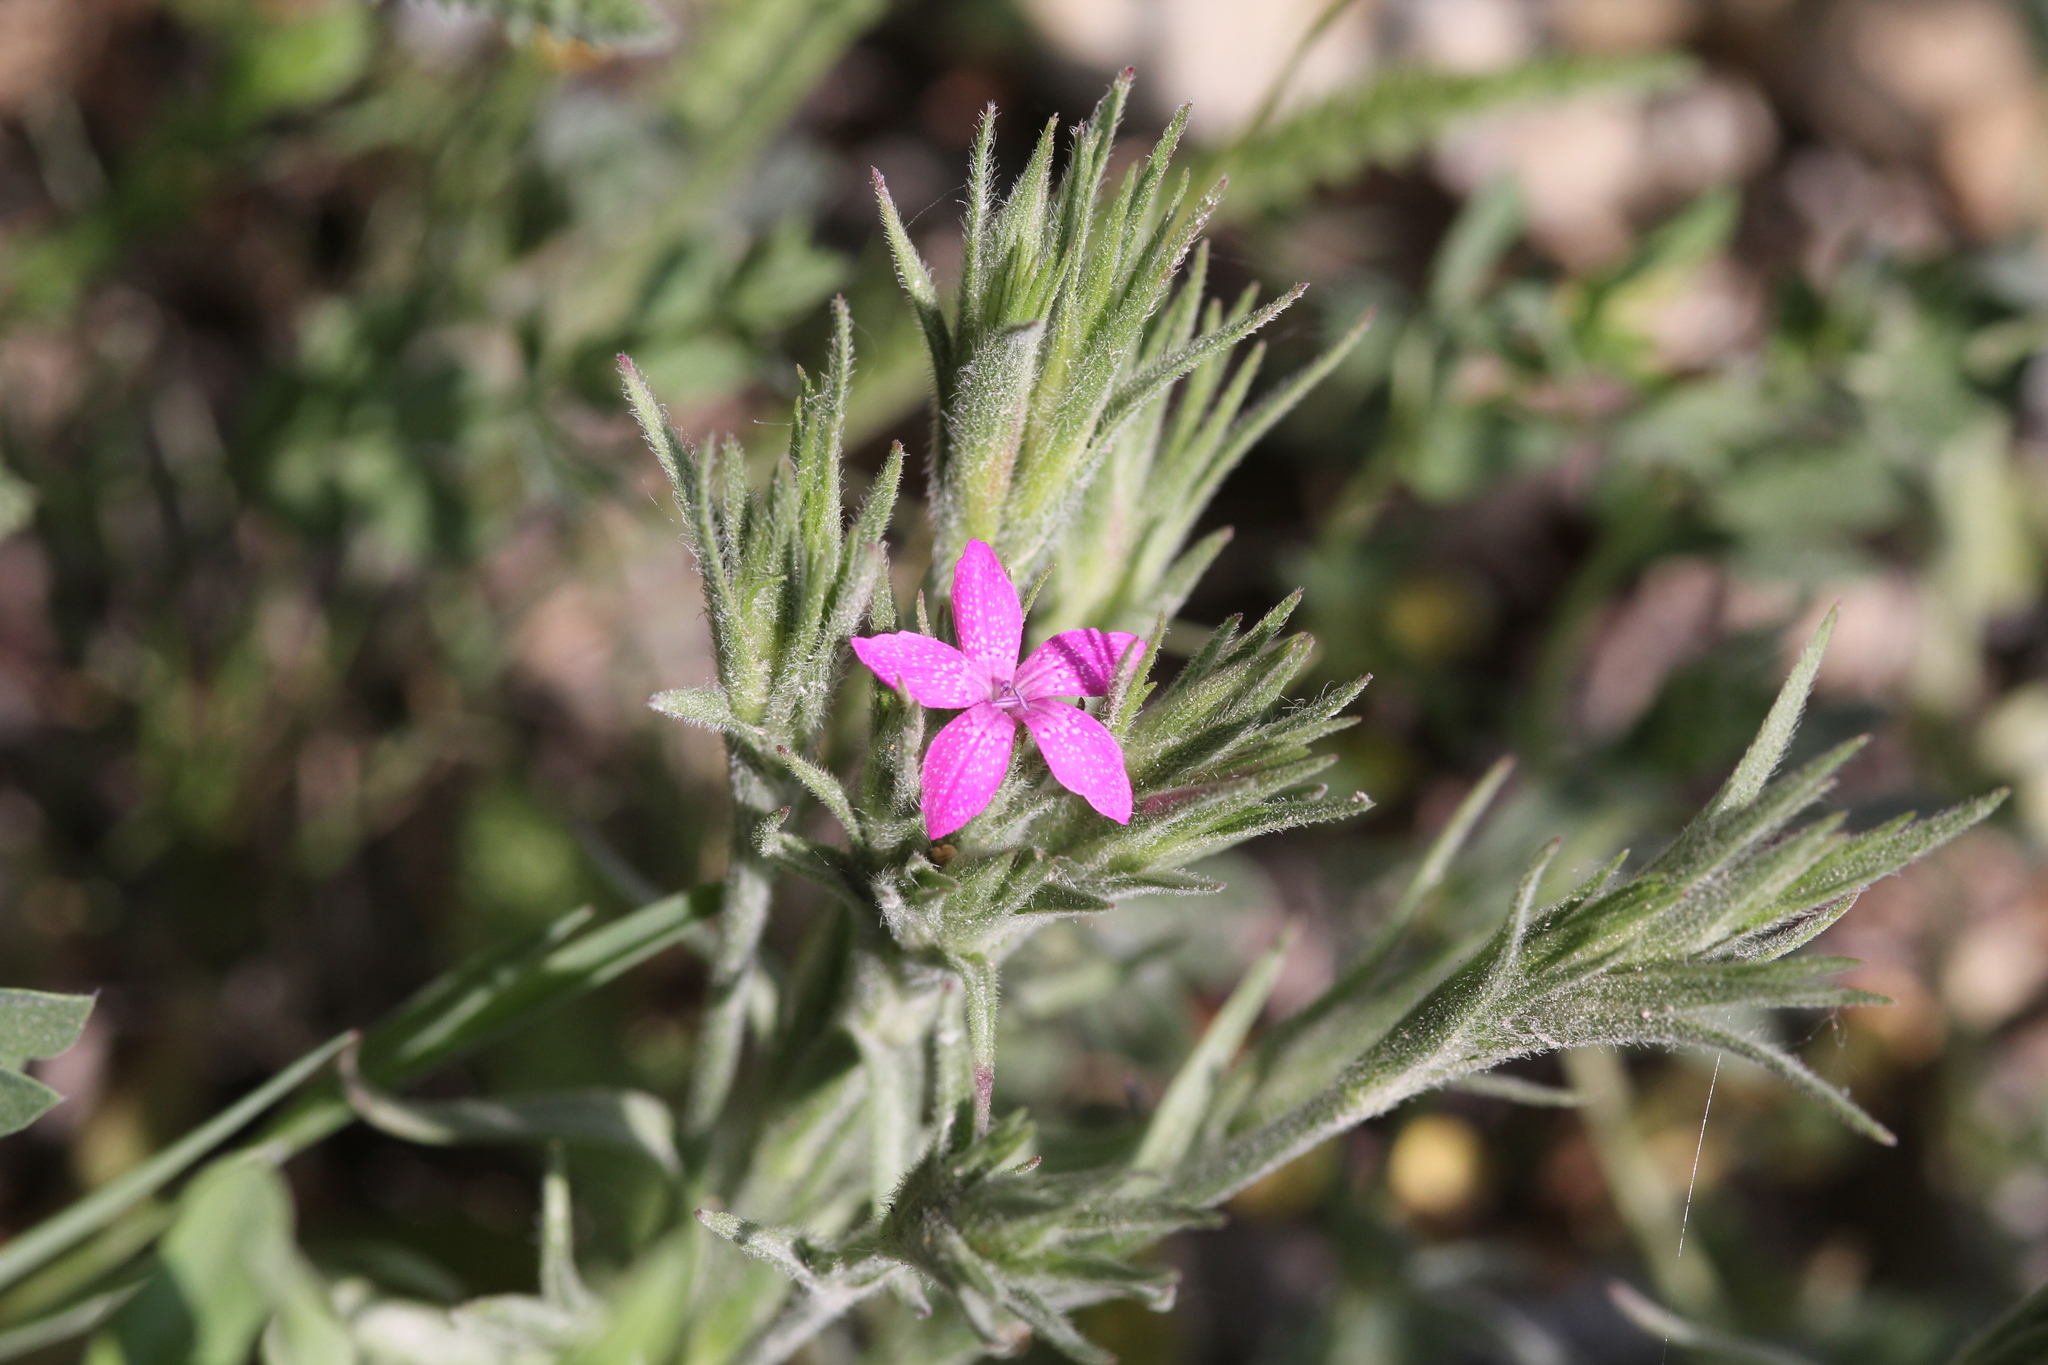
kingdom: Plantae
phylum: Tracheophyta
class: Magnoliopsida
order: Caryophyllales
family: Caryophyllaceae
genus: Dianthus
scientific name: Dianthus armeria
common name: Deptford pink
